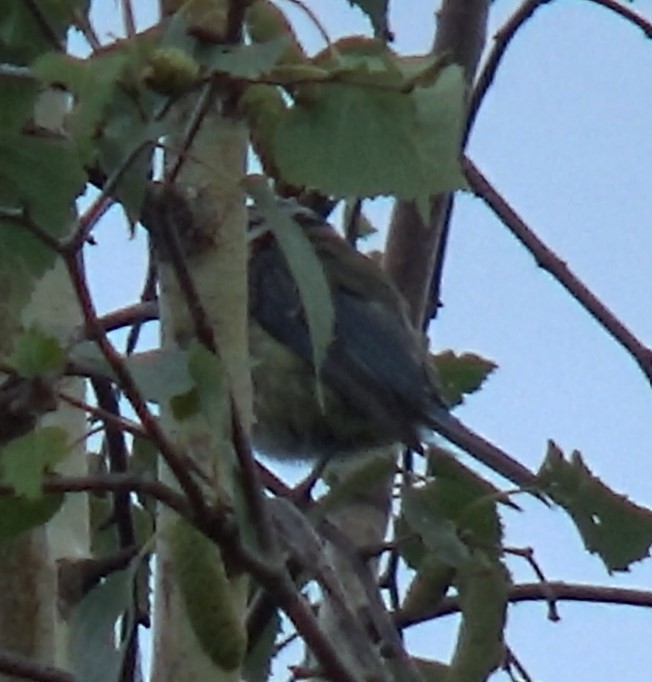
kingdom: Animalia
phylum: Chordata
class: Aves
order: Passeriformes
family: Paridae
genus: Cyanistes
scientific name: Cyanistes caeruleus
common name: Eurasian blue tit
